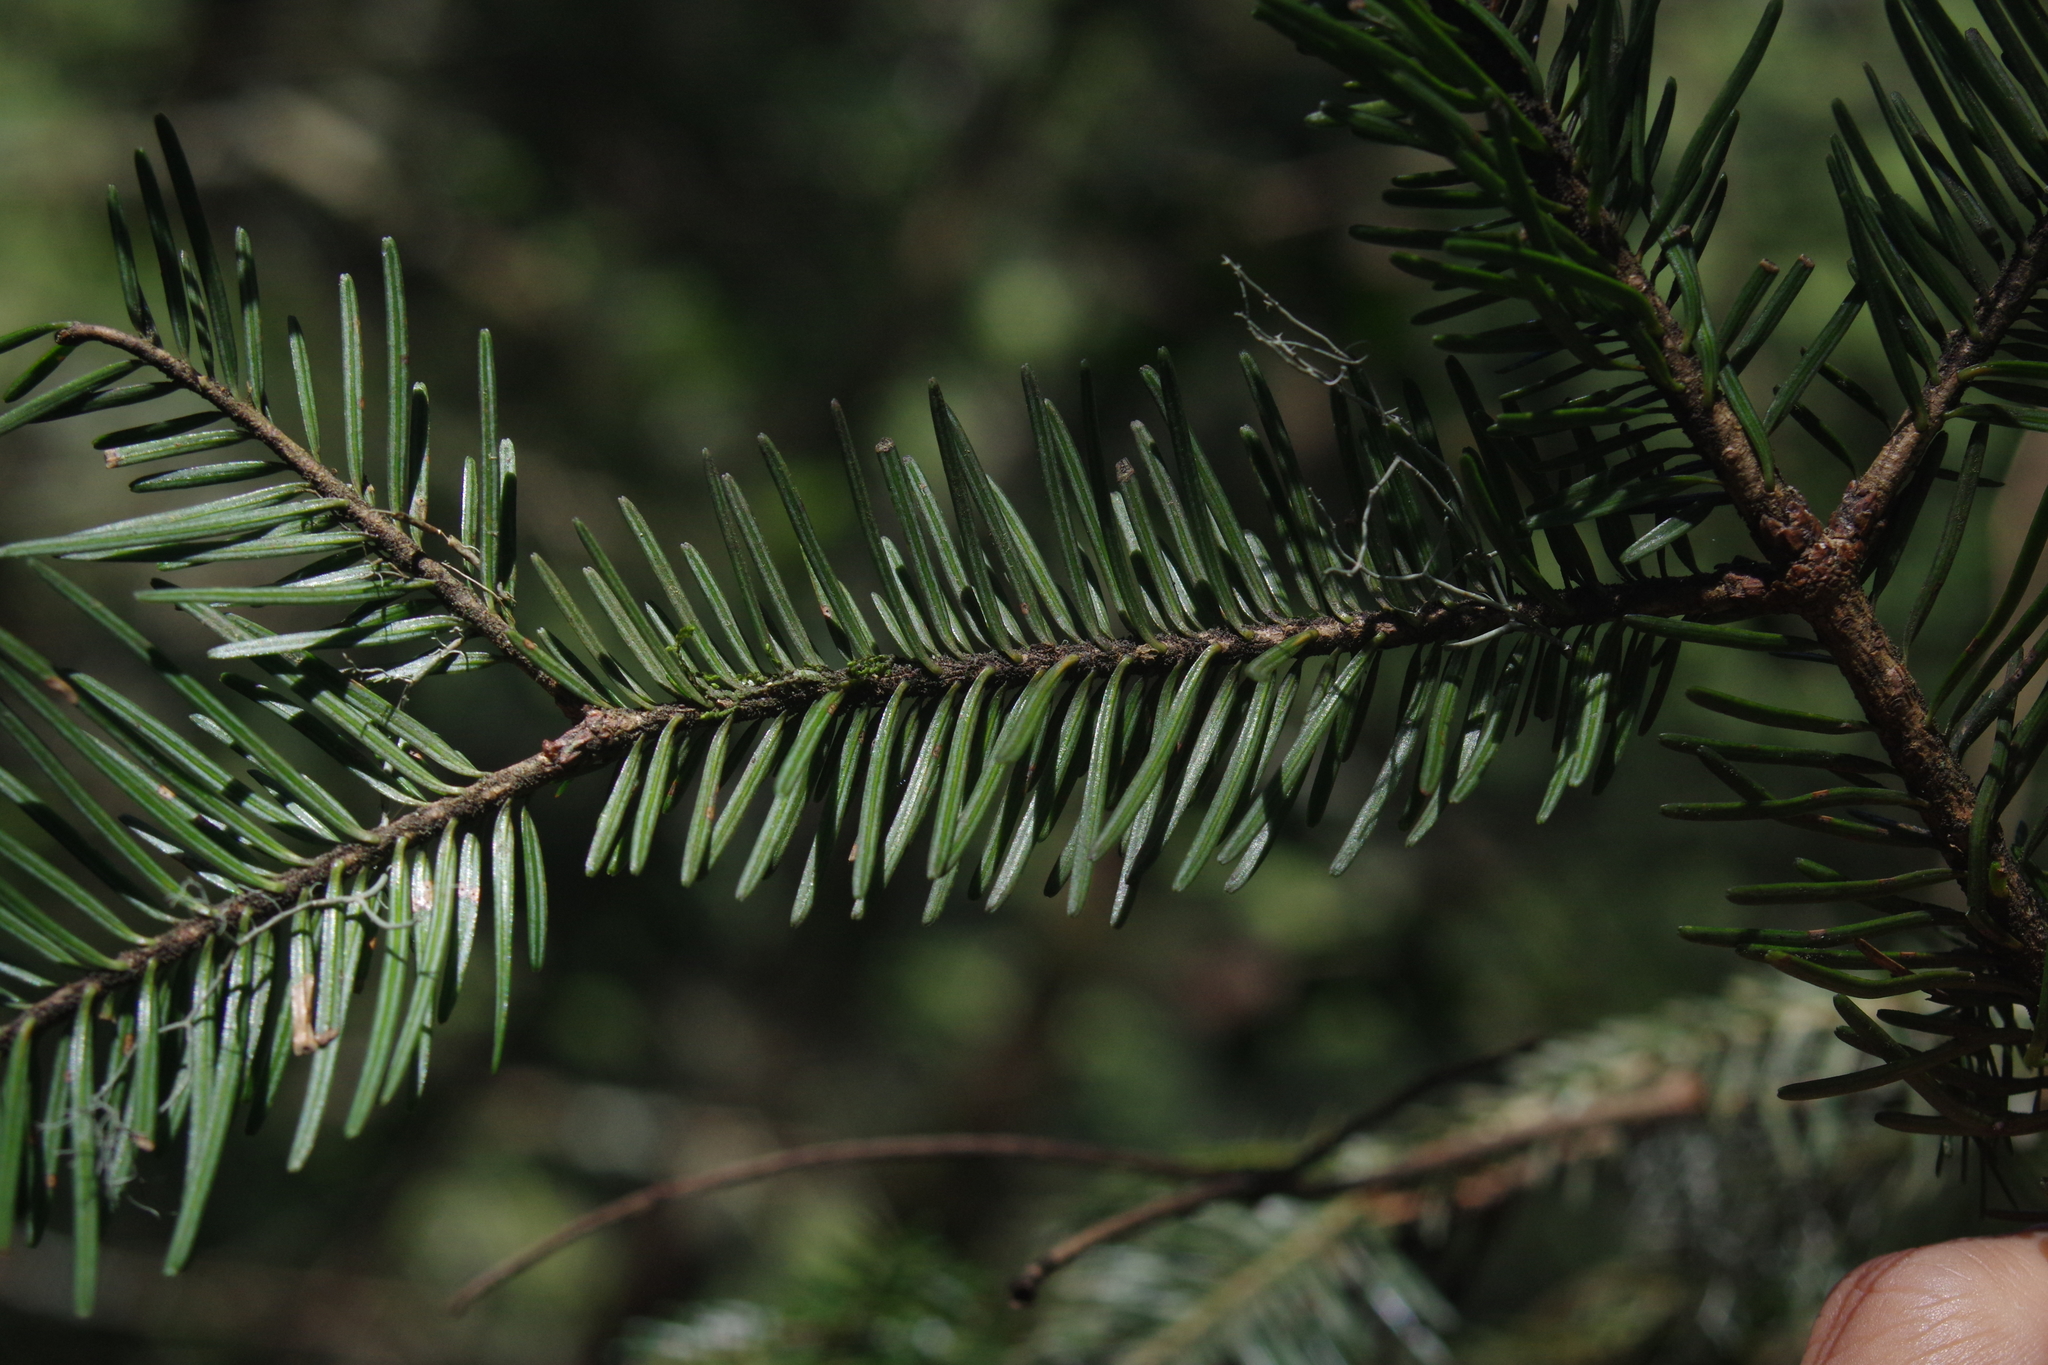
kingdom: Plantae
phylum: Tracheophyta
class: Pinopsida
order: Pinales
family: Pinaceae
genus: Abies
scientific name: Abies kawakamii
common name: Taiwan fir
